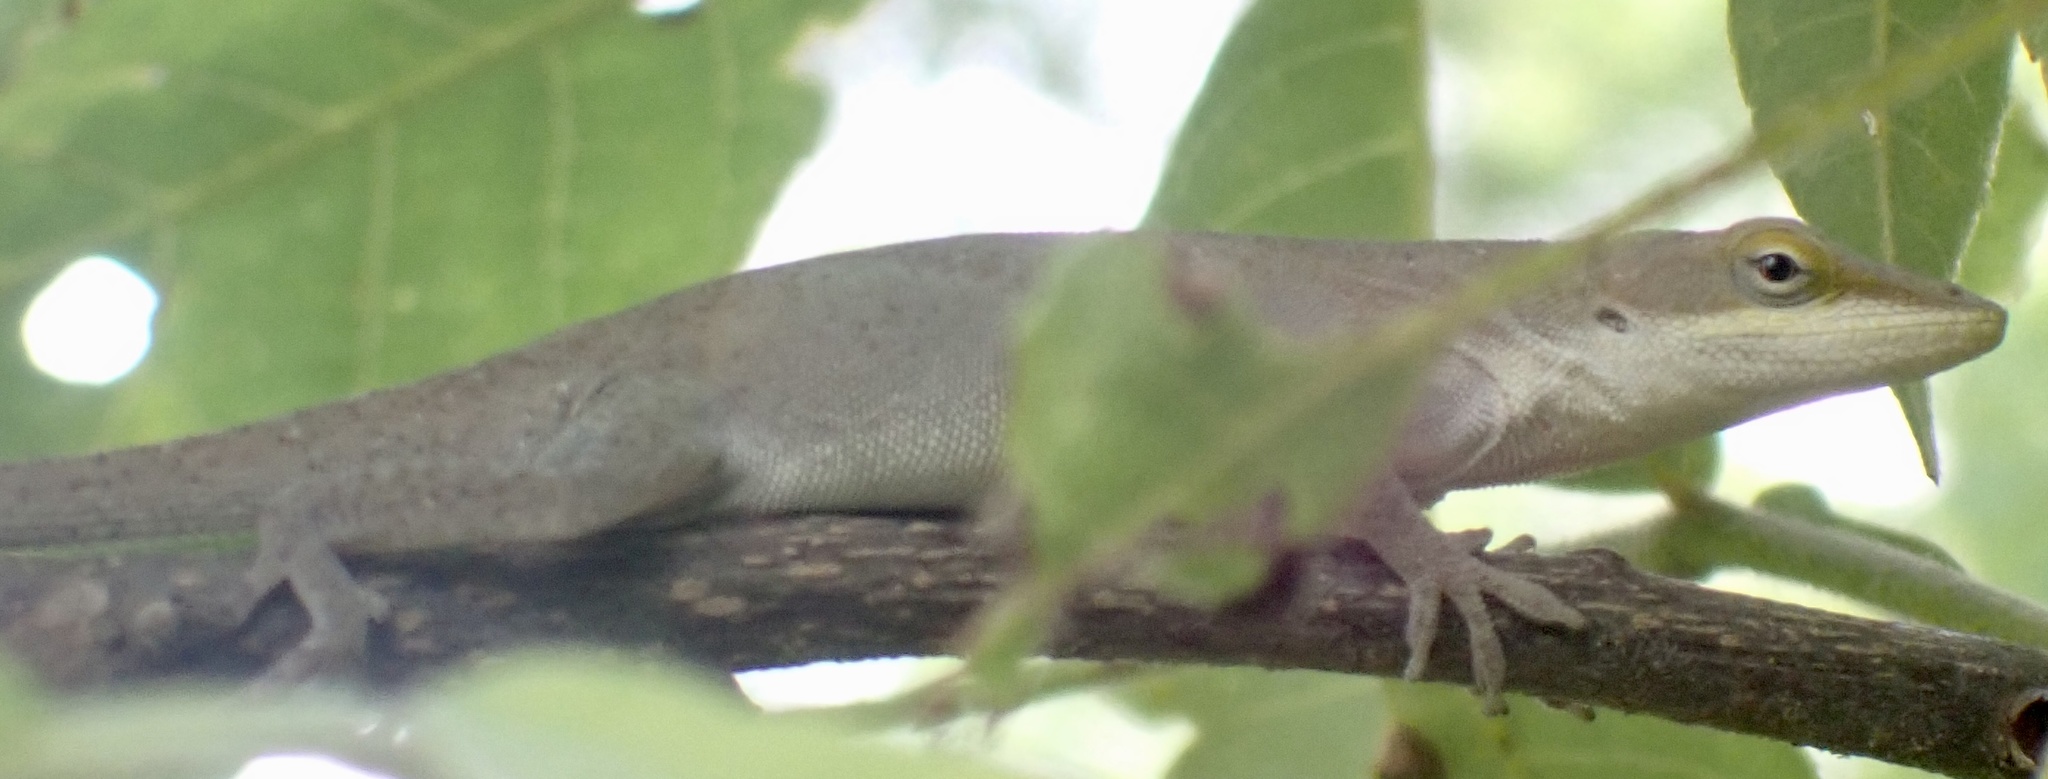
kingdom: Animalia
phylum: Chordata
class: Squamata
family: Dactyloidae
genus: Anolis
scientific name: Anolis carolinensis
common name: Green anole
